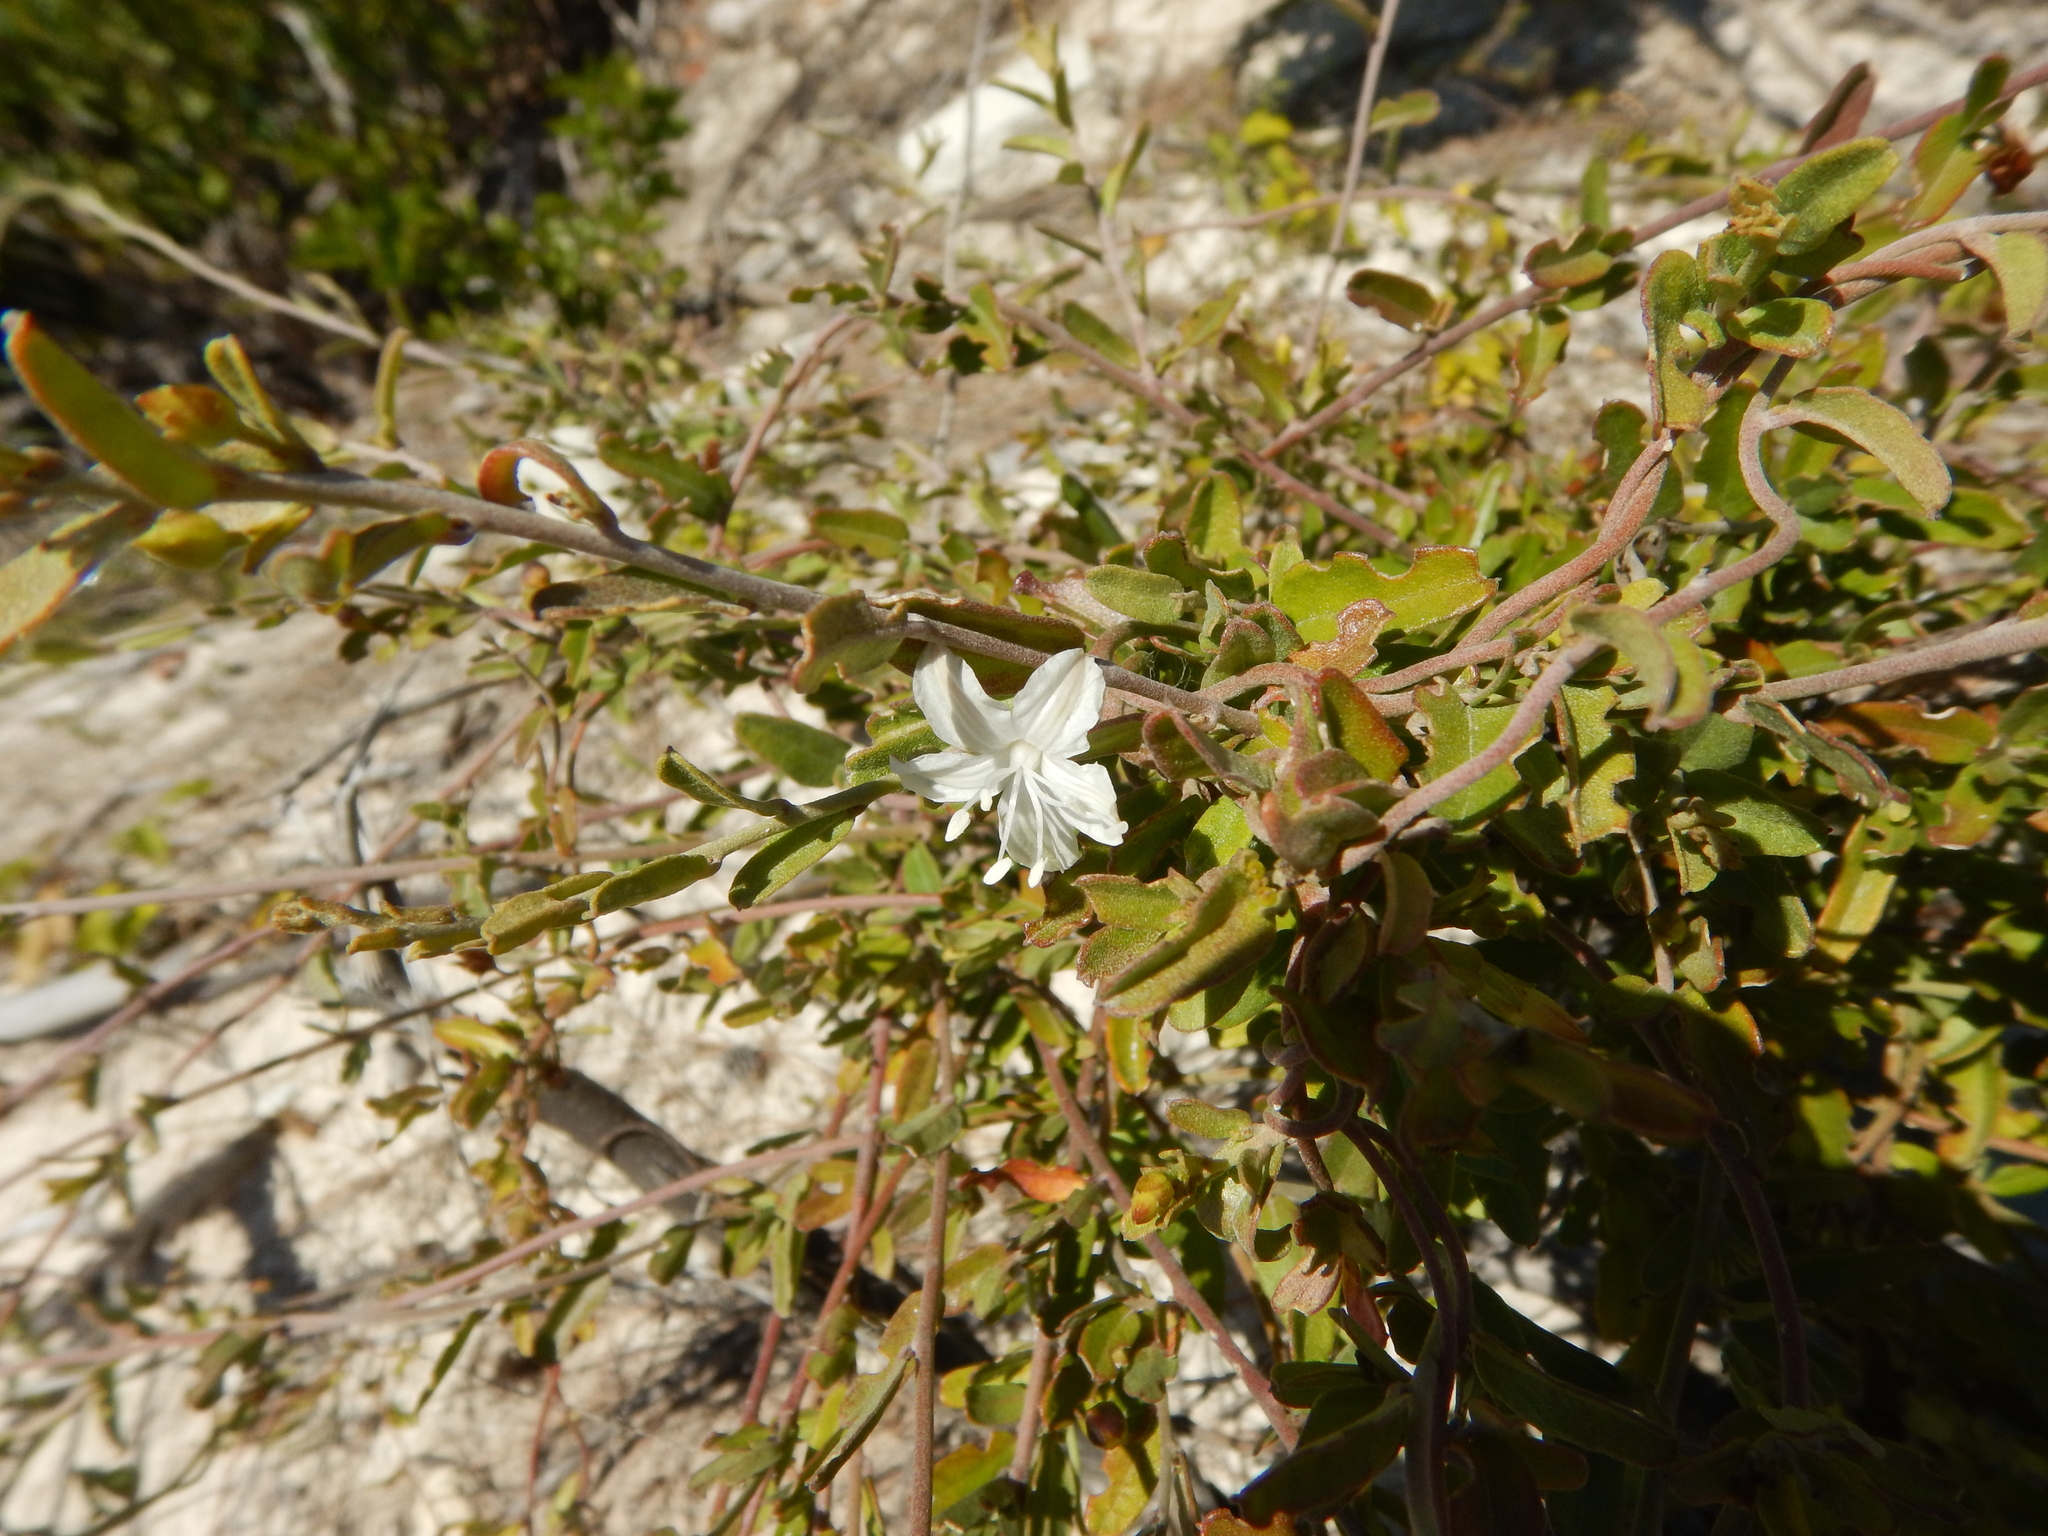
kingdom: Plantae
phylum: Tracheophyta
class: Magnoliopsida
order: Solanales
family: Convolvulaceae
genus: Jacquemontia
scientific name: Jacquemontia havanensis
